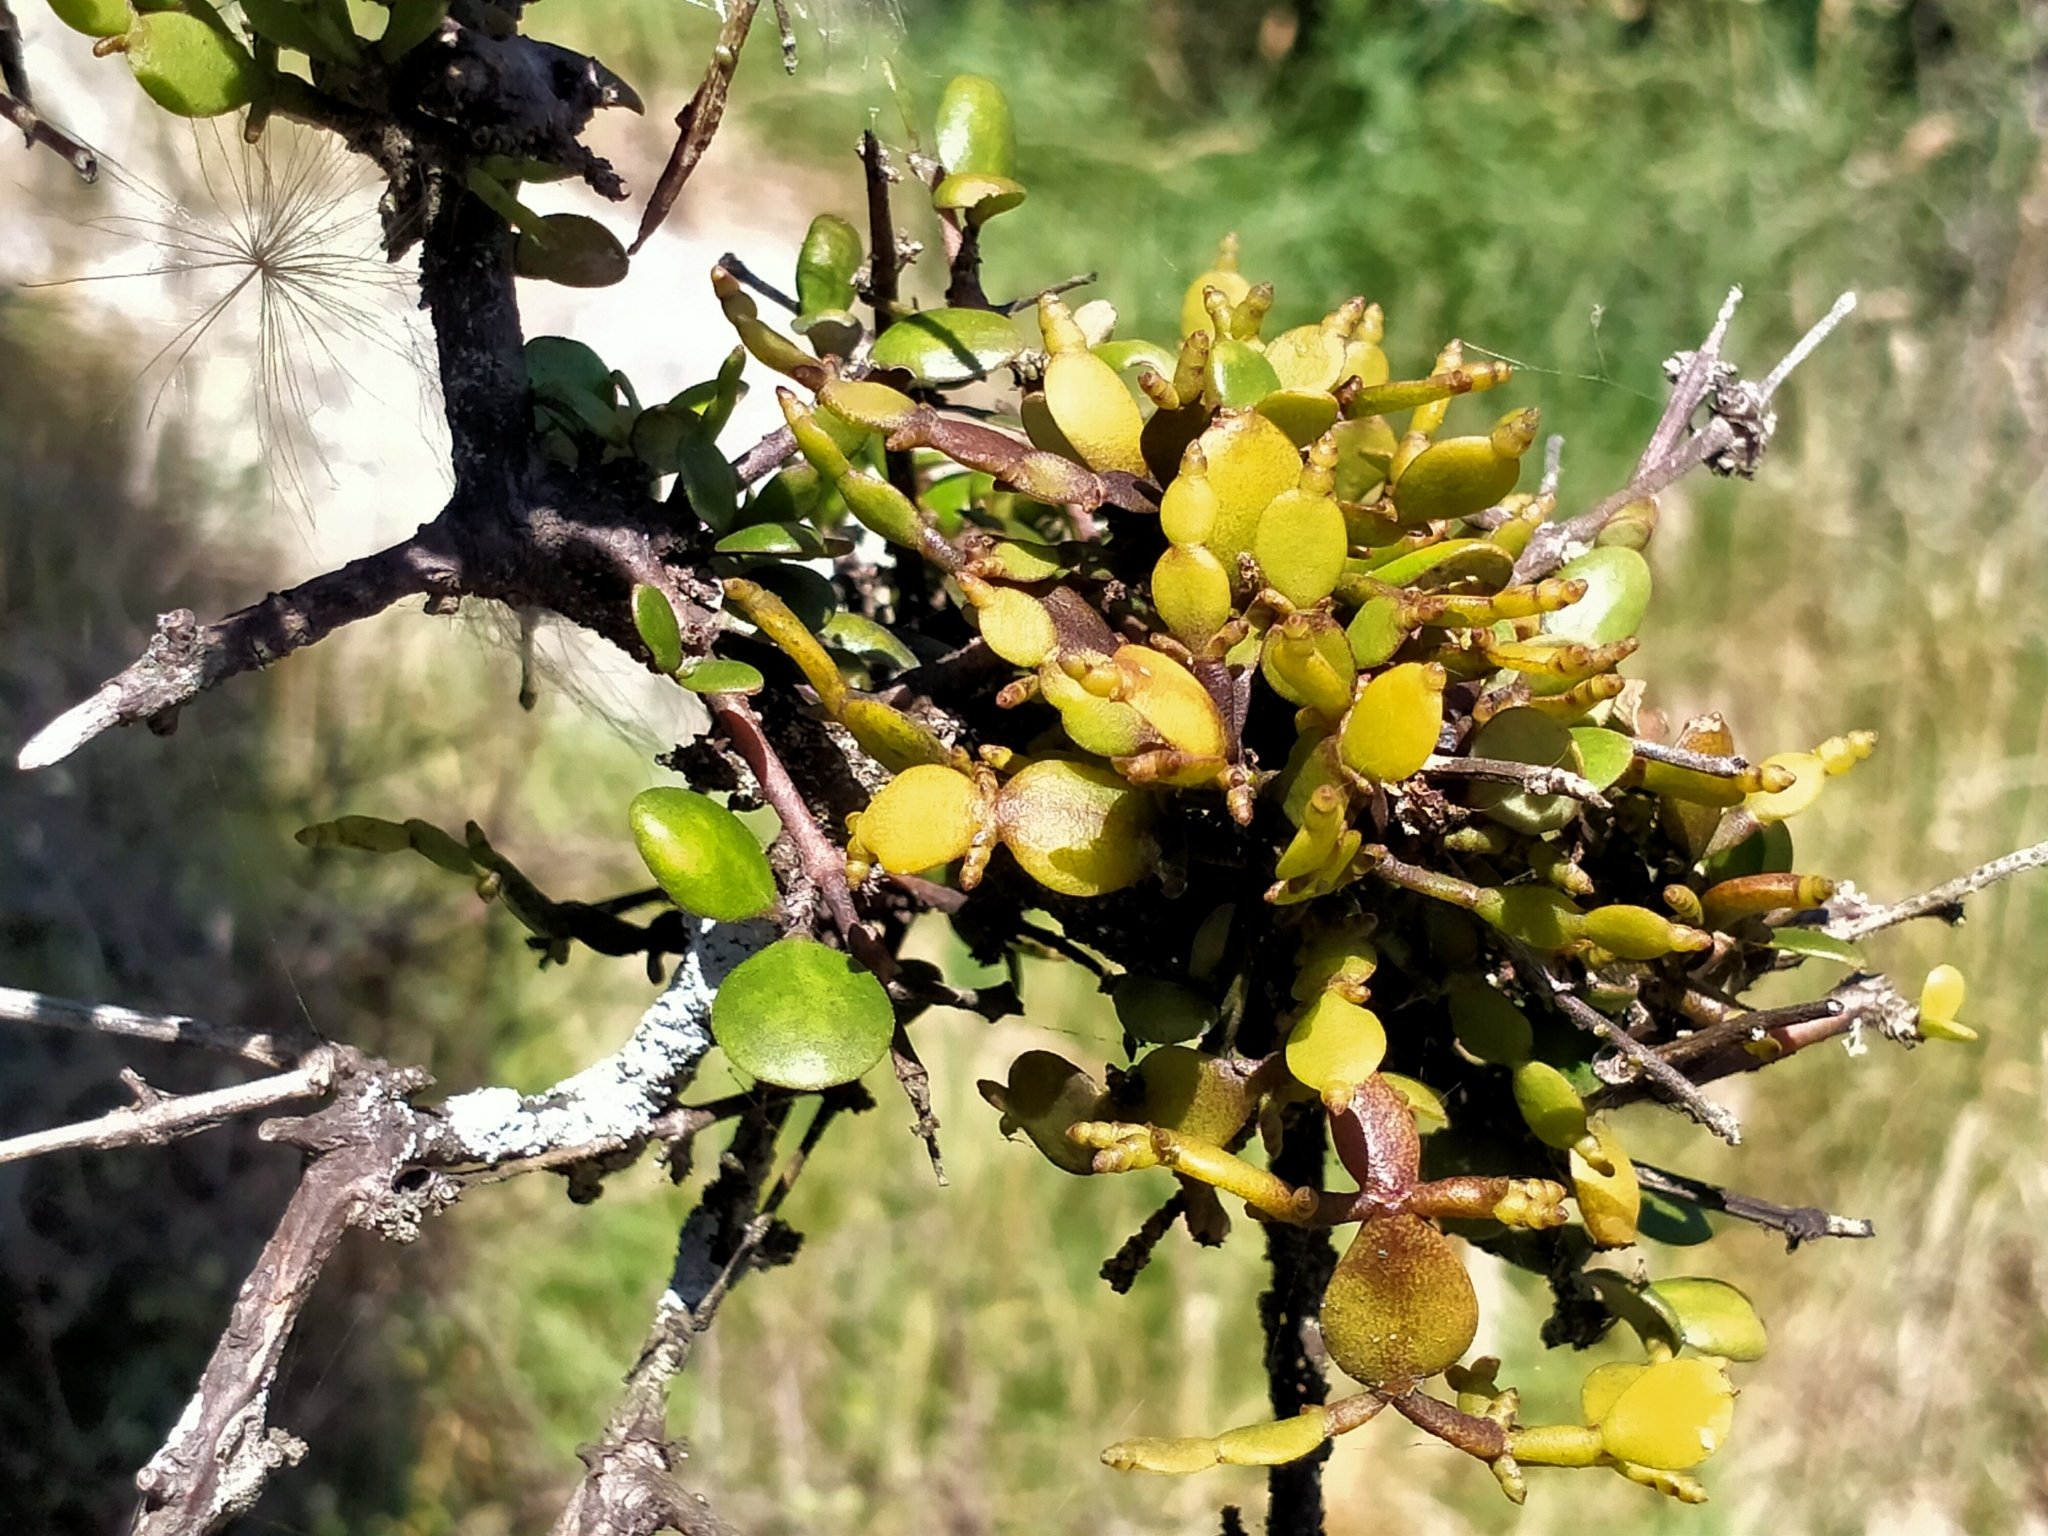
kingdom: Plantae
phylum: Tracheophyta
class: Magnoliopsida
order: Santalales
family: Viscaceae
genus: Korthalsella
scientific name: Korthalsella lindsayi
